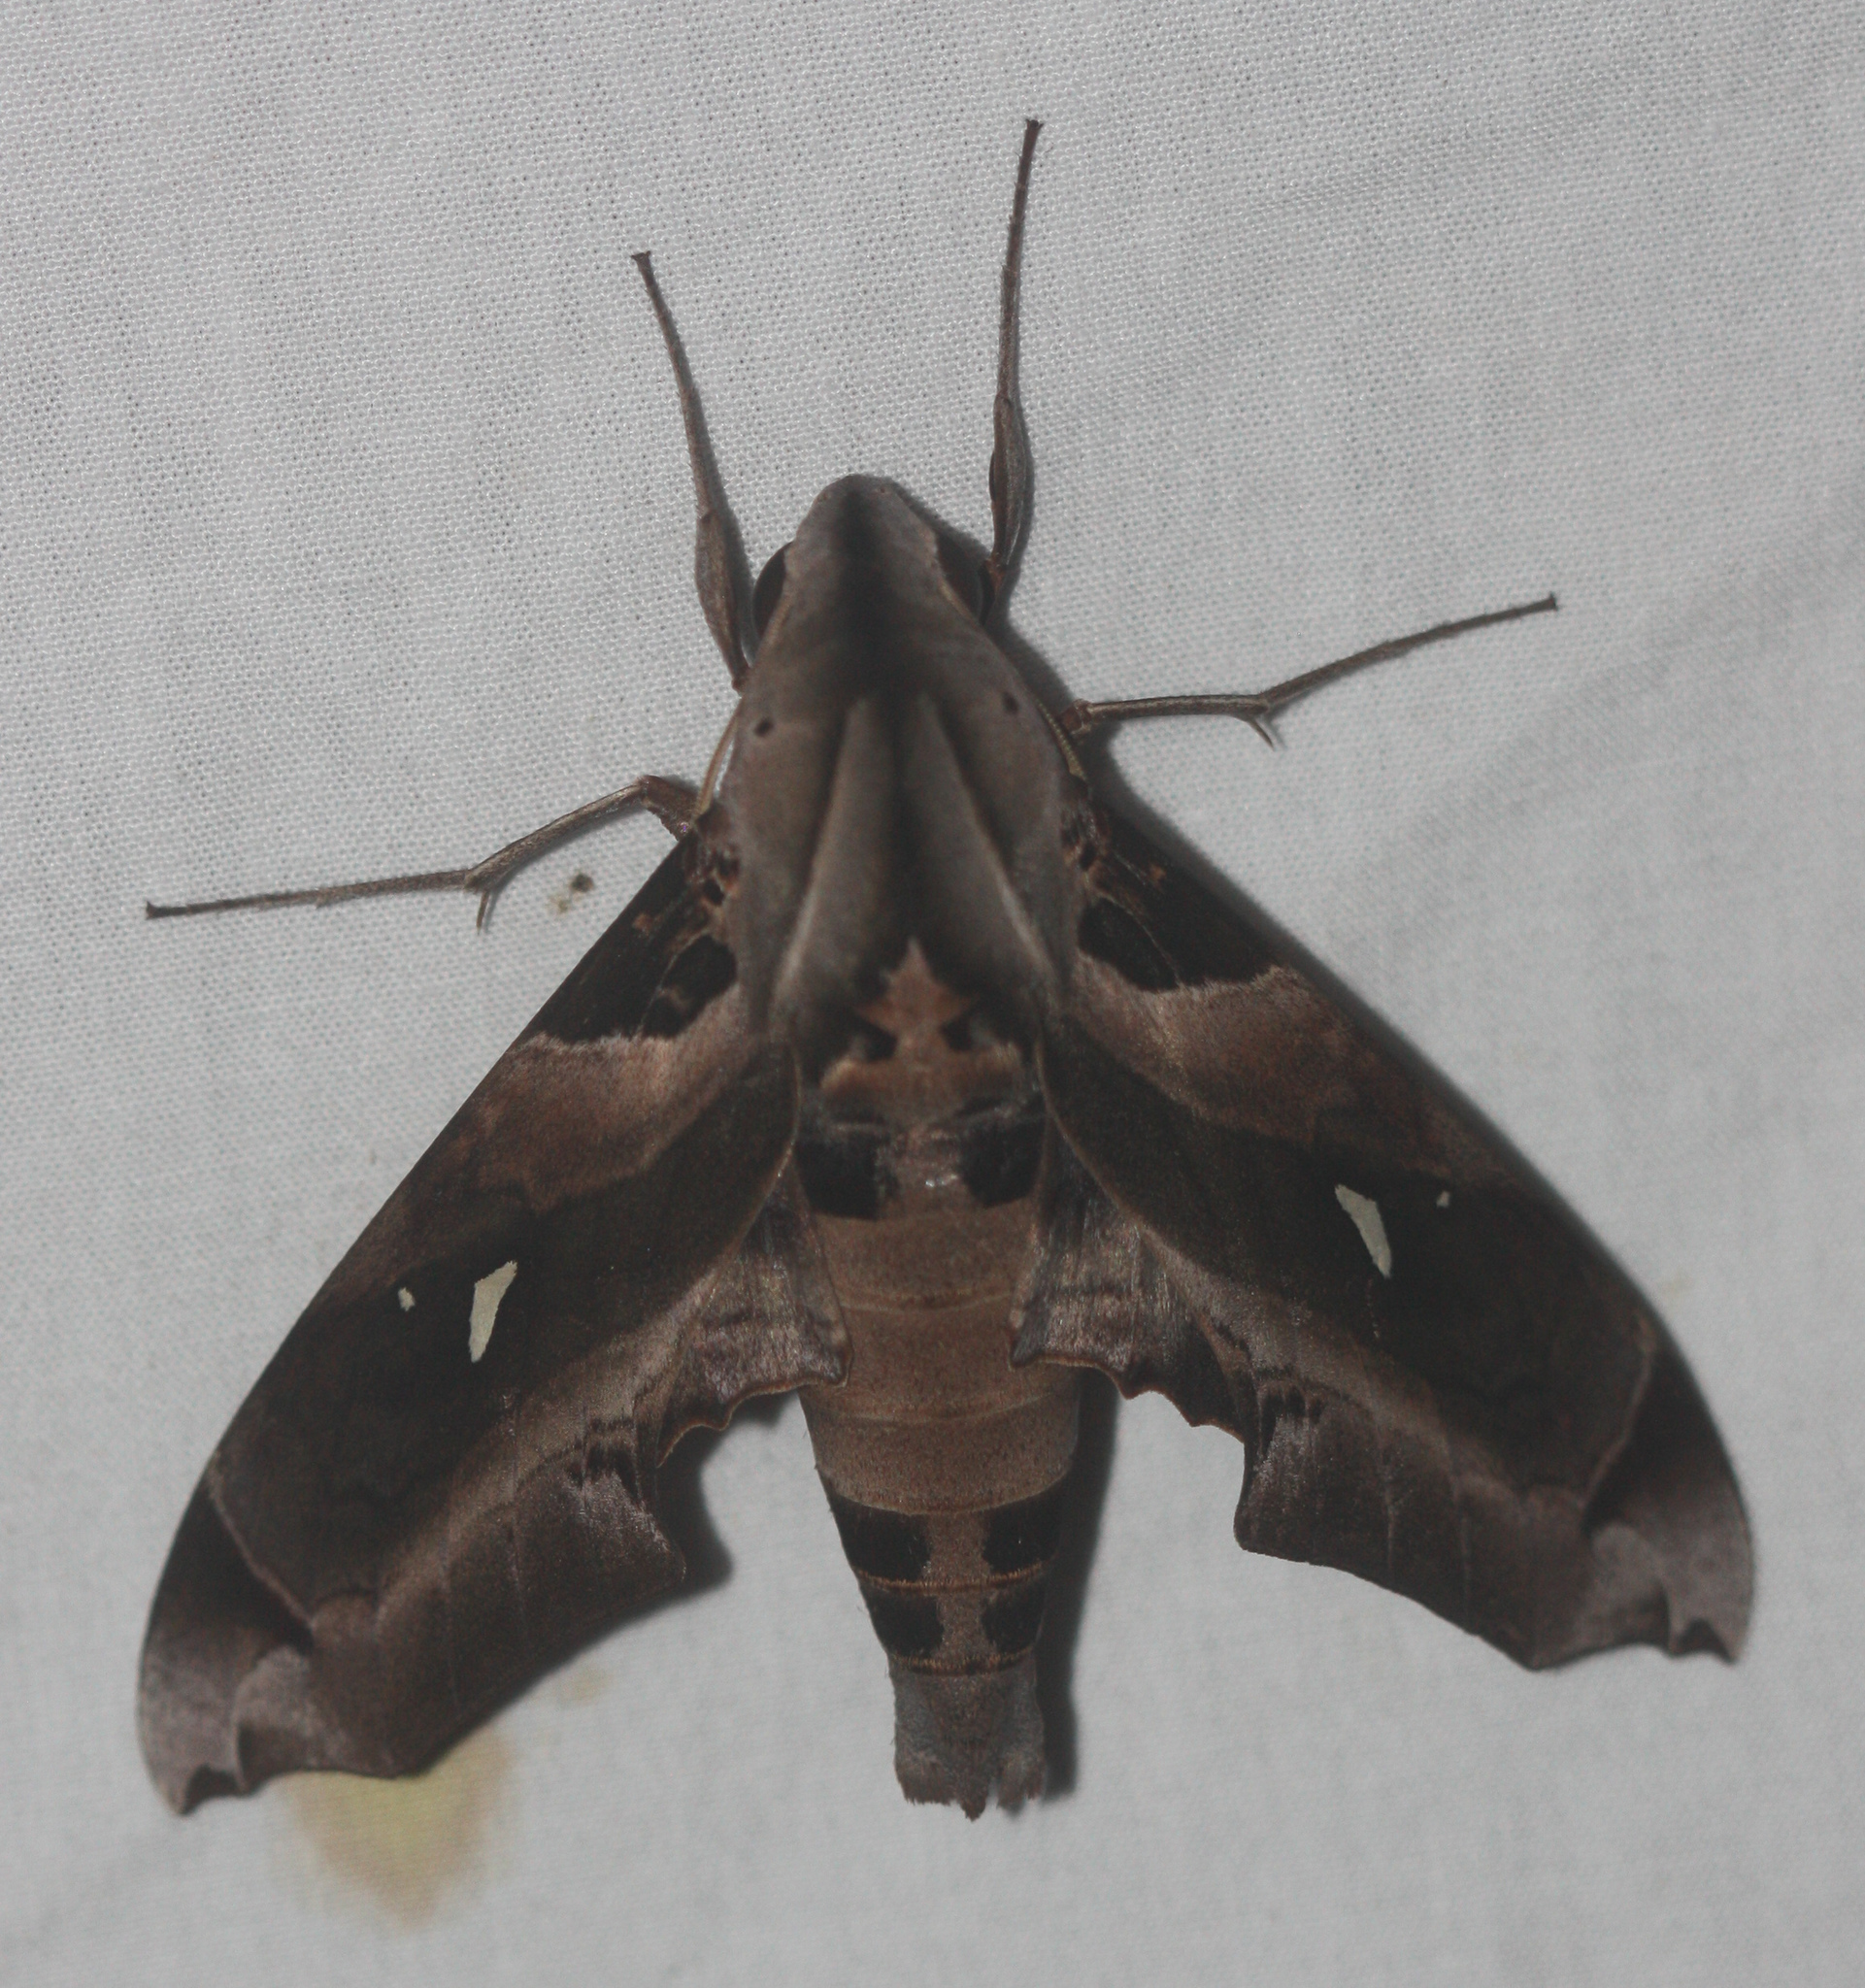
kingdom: Animalia
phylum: Arthropoda
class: Insecta
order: Lepidoptera
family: Sphingidae
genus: Madoryx
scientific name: Madoryx plutonius
